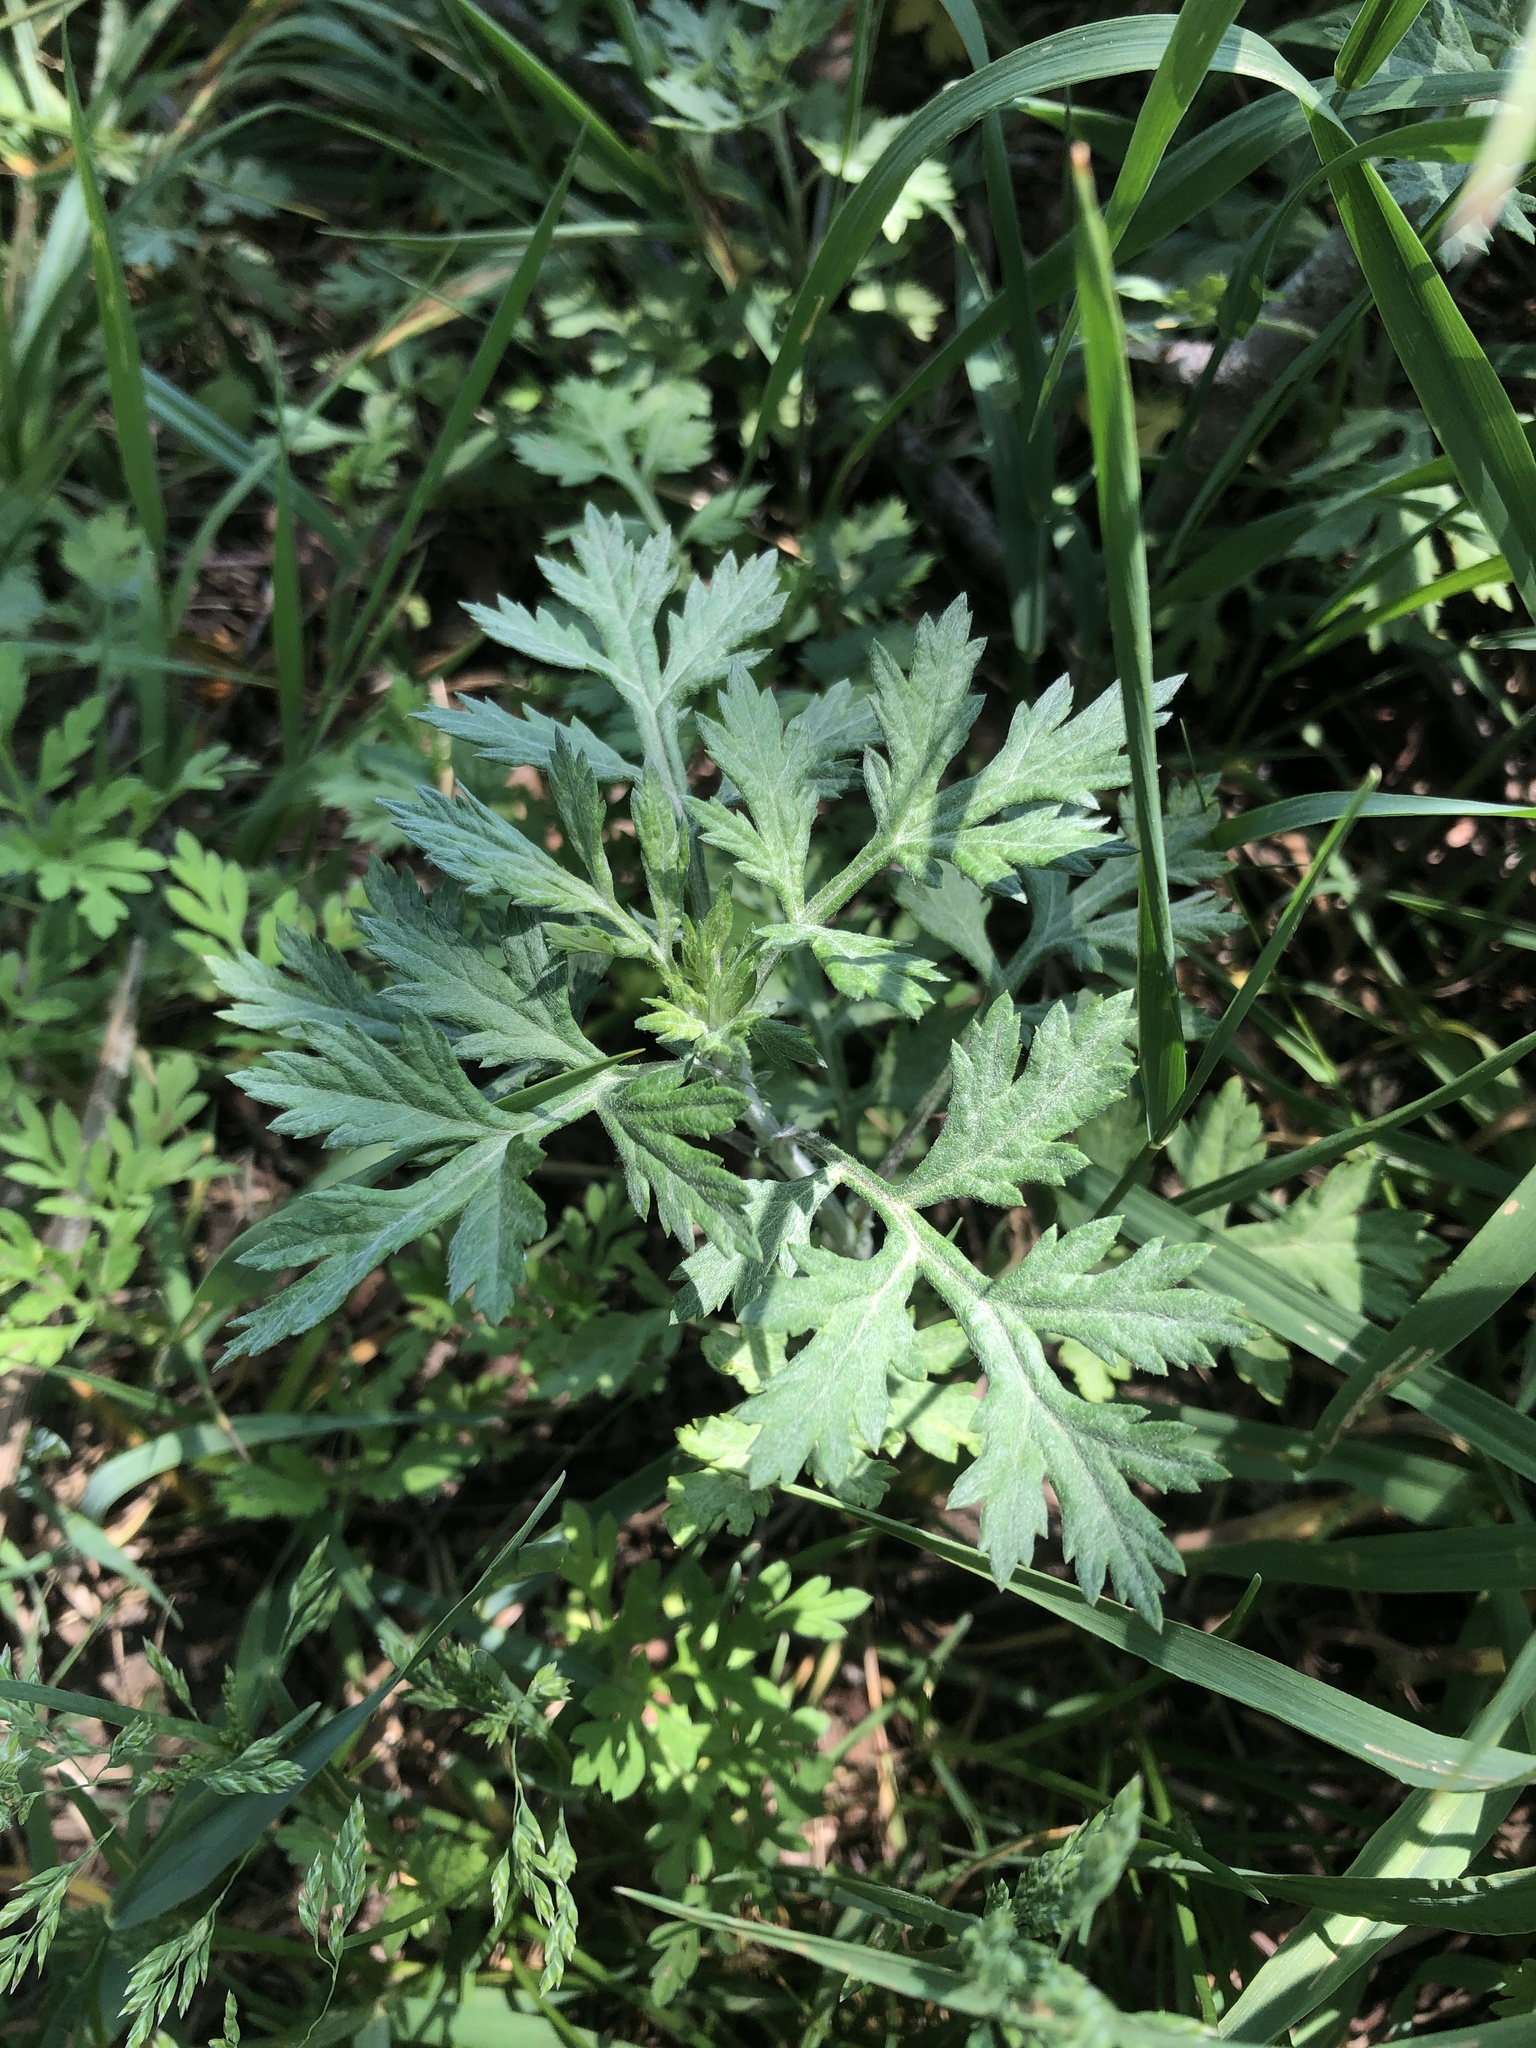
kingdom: Plantae
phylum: Tracheophyta
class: Magnoliopsida
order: Asterales
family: Asteraceae
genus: Artemisia
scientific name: Artemisia vulgaris
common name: Mugwort
